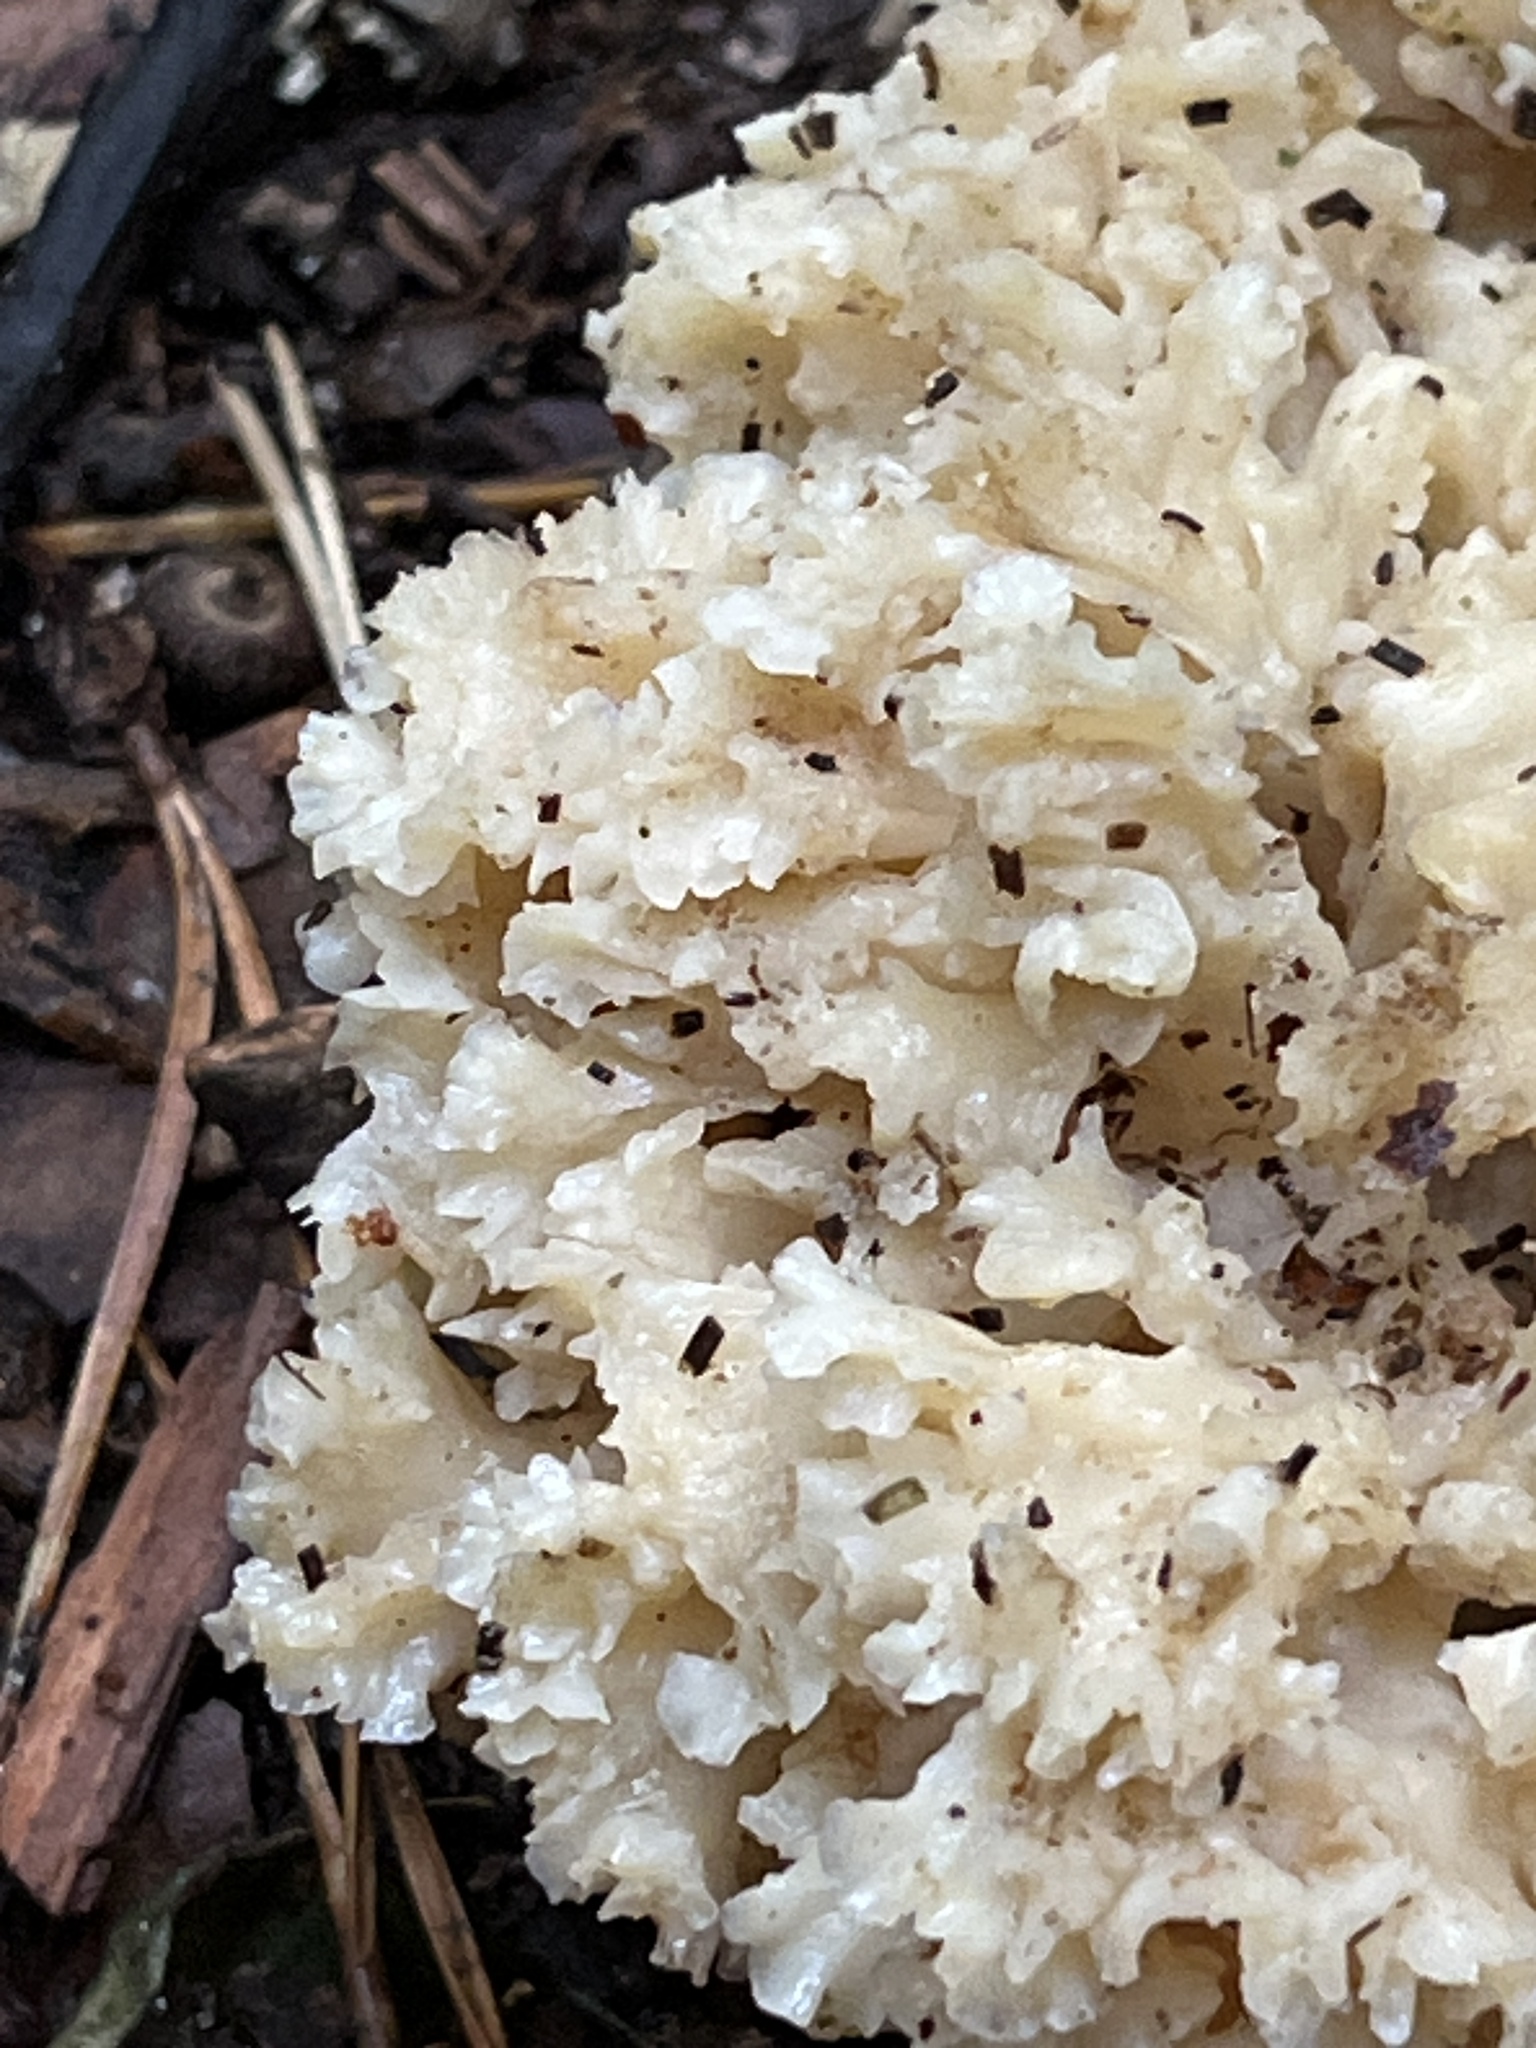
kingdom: Fungi
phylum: Basidiomycota
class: Agaricomycetes
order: Polyporales
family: Sparassidaceae
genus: Sparassis
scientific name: Sparassis crispa
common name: Brain fungus
